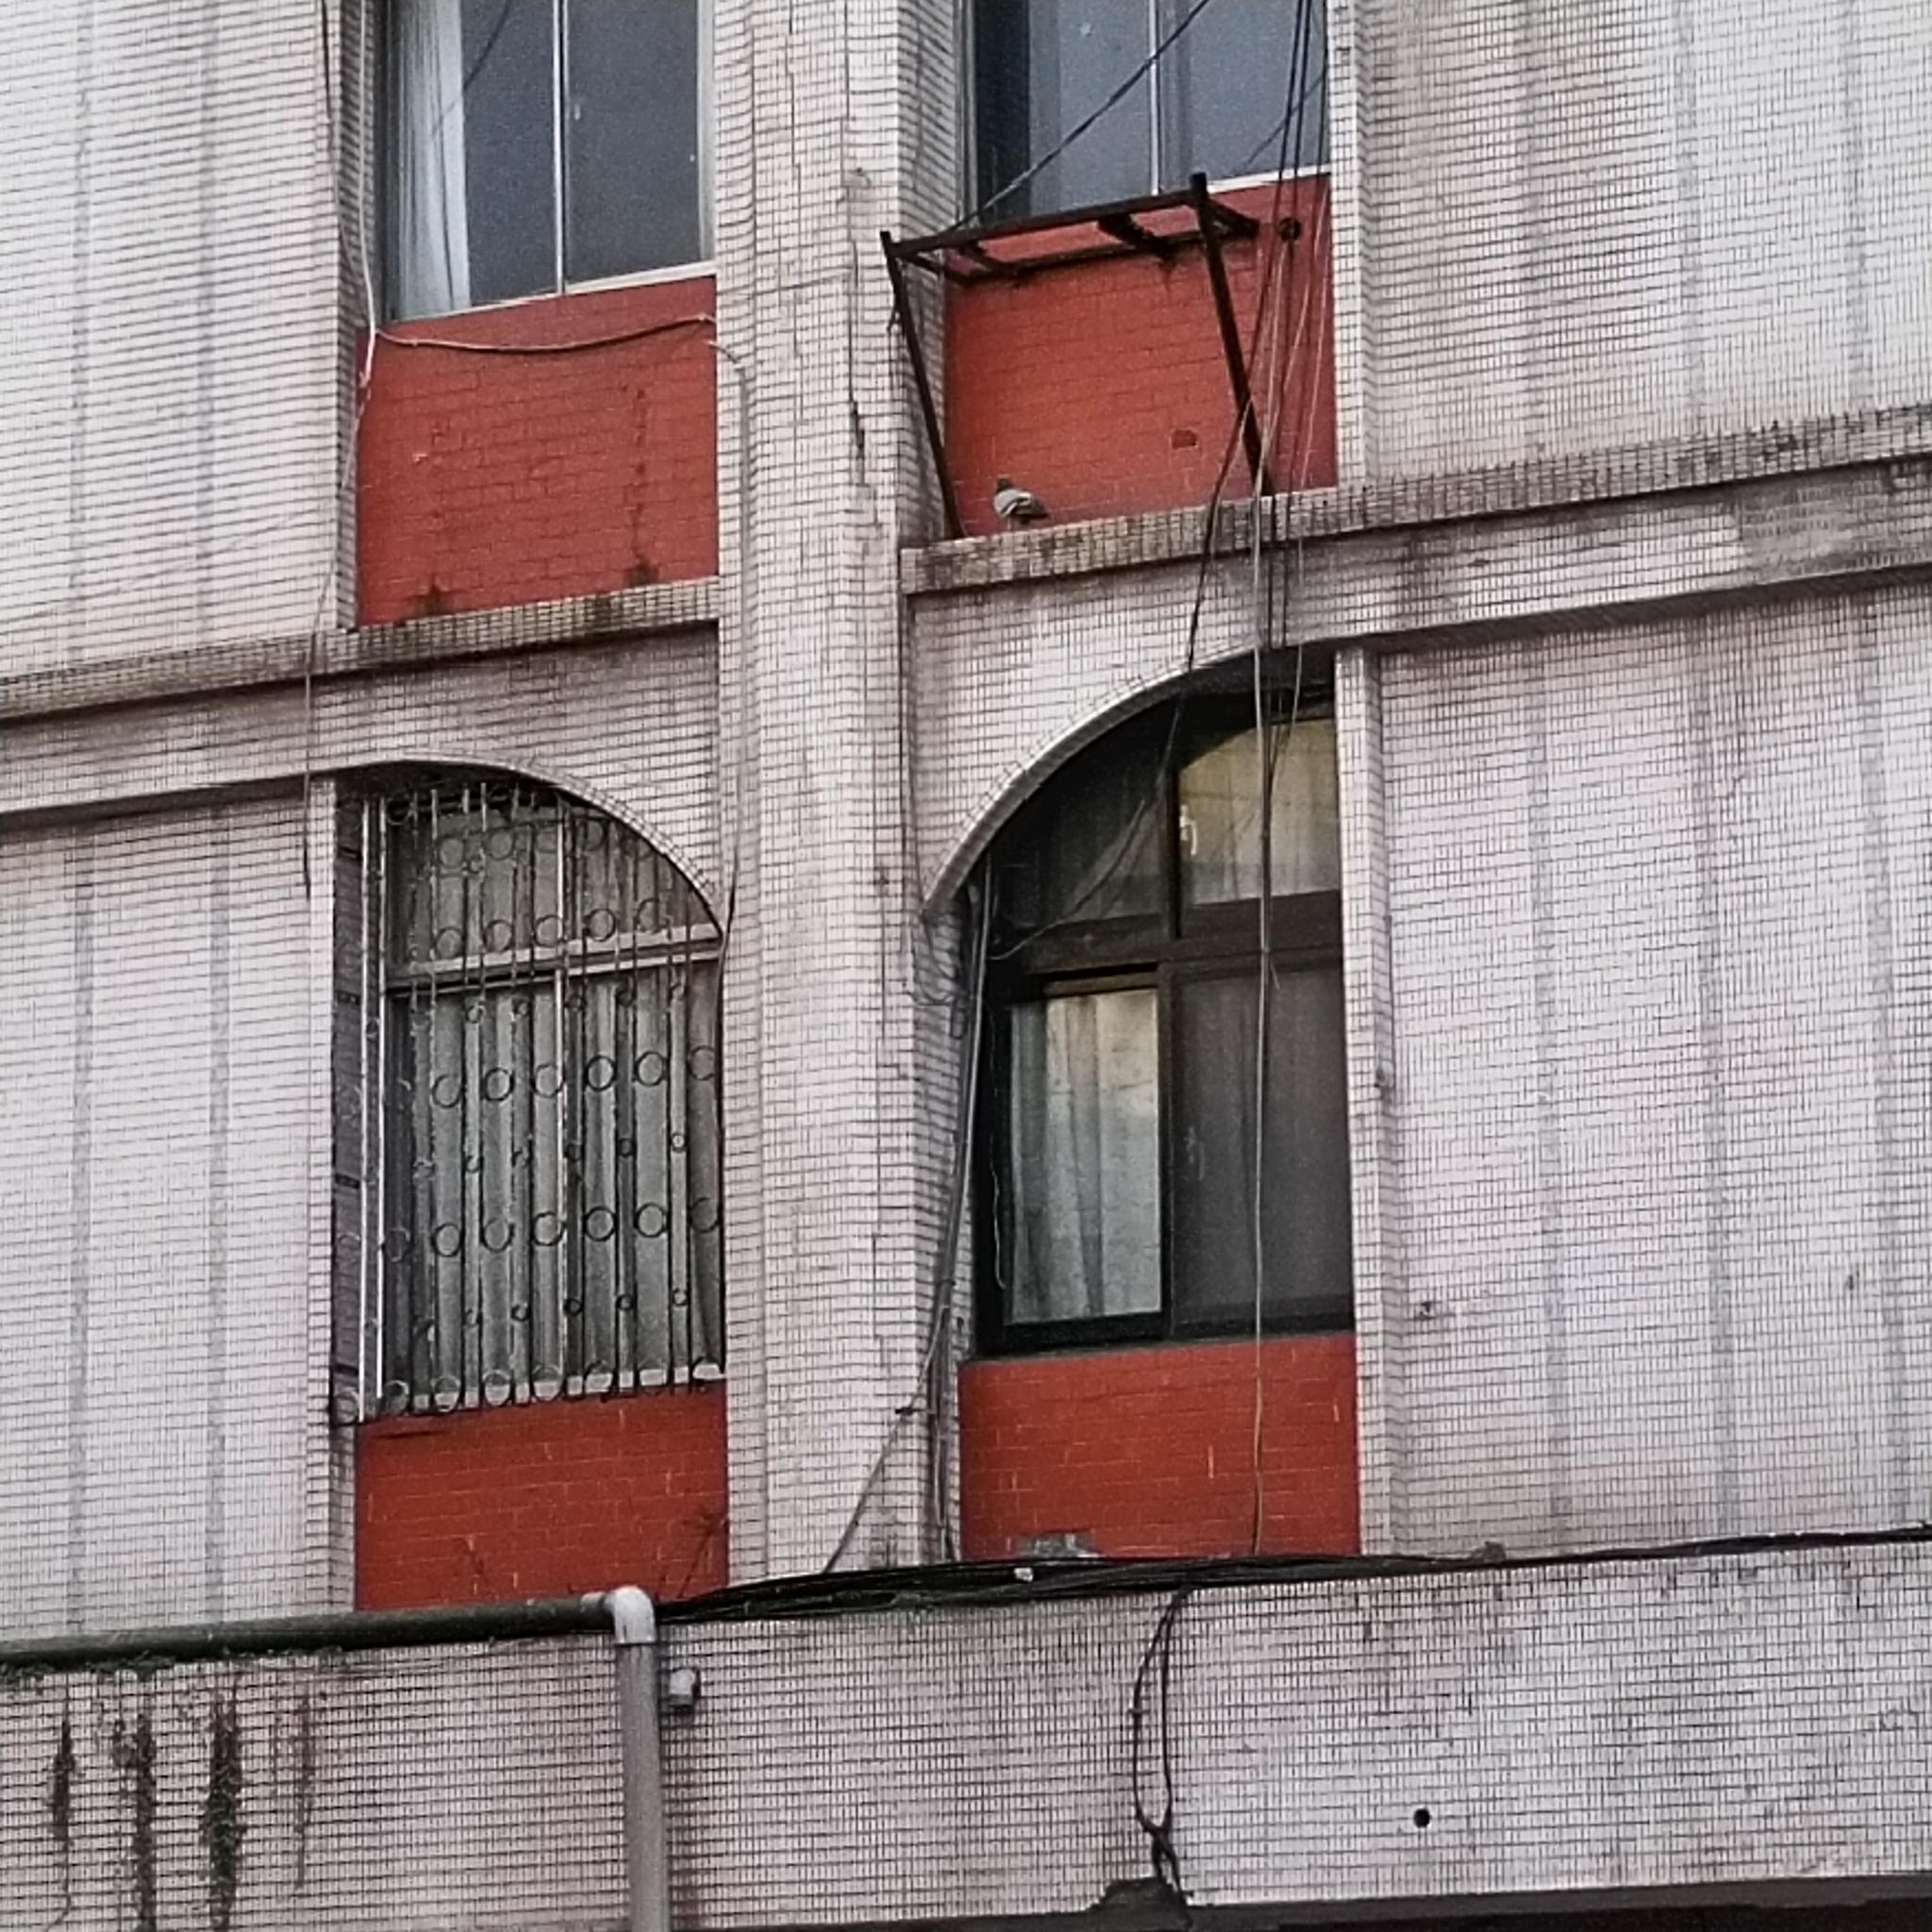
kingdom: Animalia
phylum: Chordata
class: Aves
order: Columbiformes
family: Columbidae
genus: Columba
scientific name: Columba livia
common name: Rock pigeon
